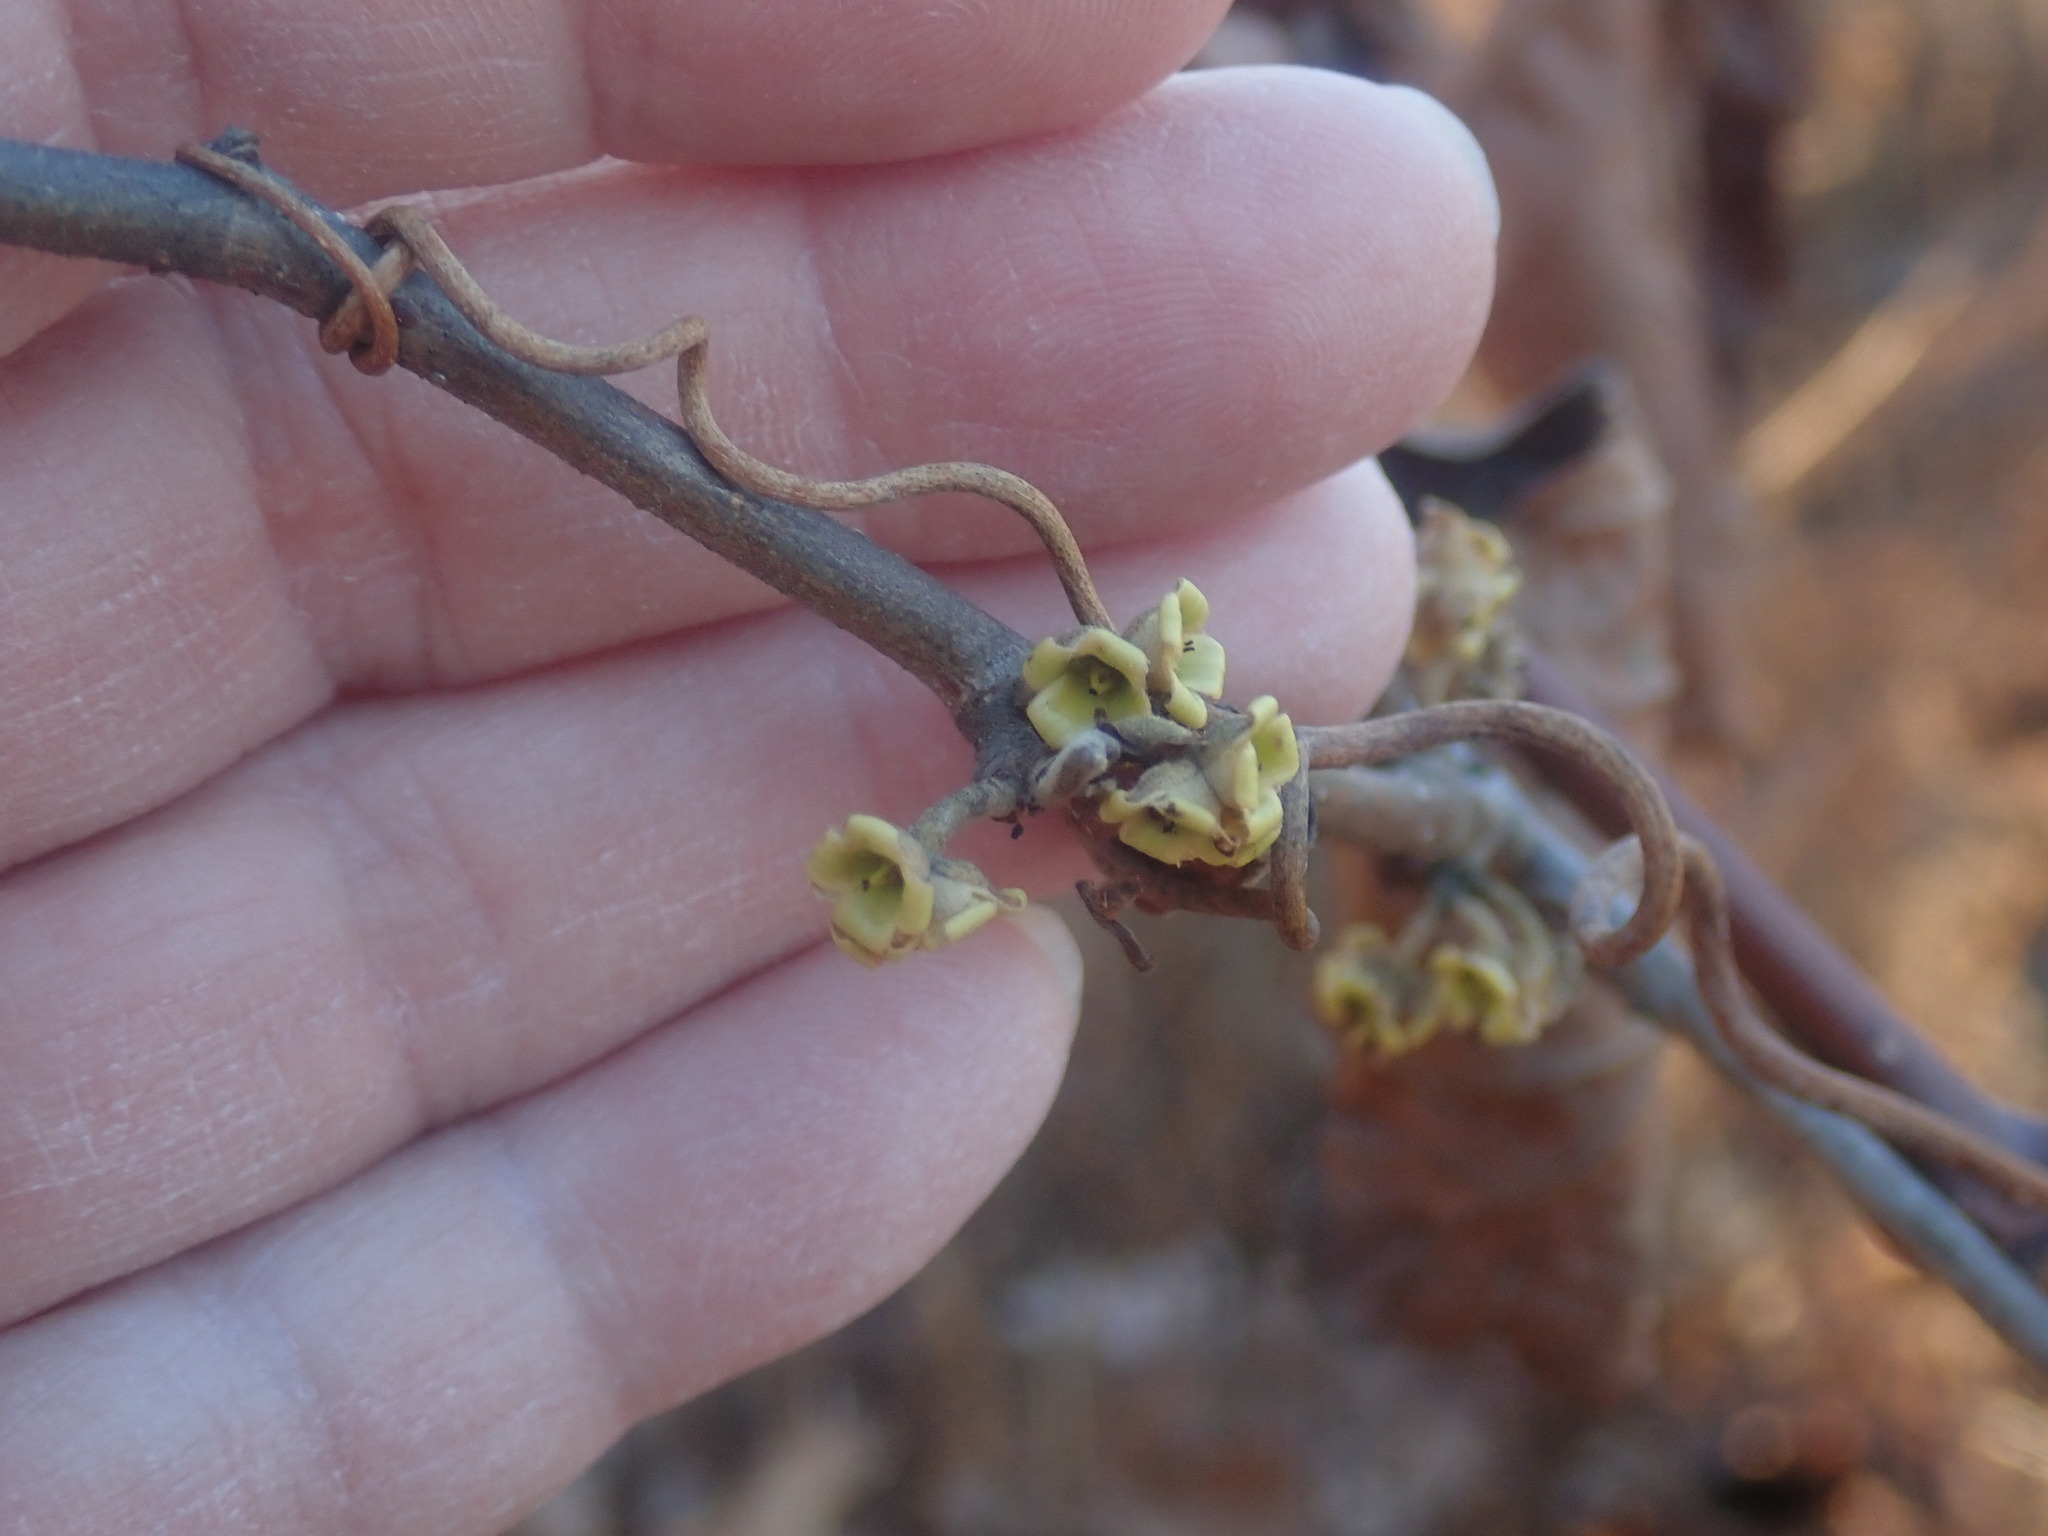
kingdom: Plantae
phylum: Tracheophyta
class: Magnoliopsida
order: Saxifragales
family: Hamamelidaceae
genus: Hamamelis
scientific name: Hamamelis virginiana
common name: Witch-hazel
